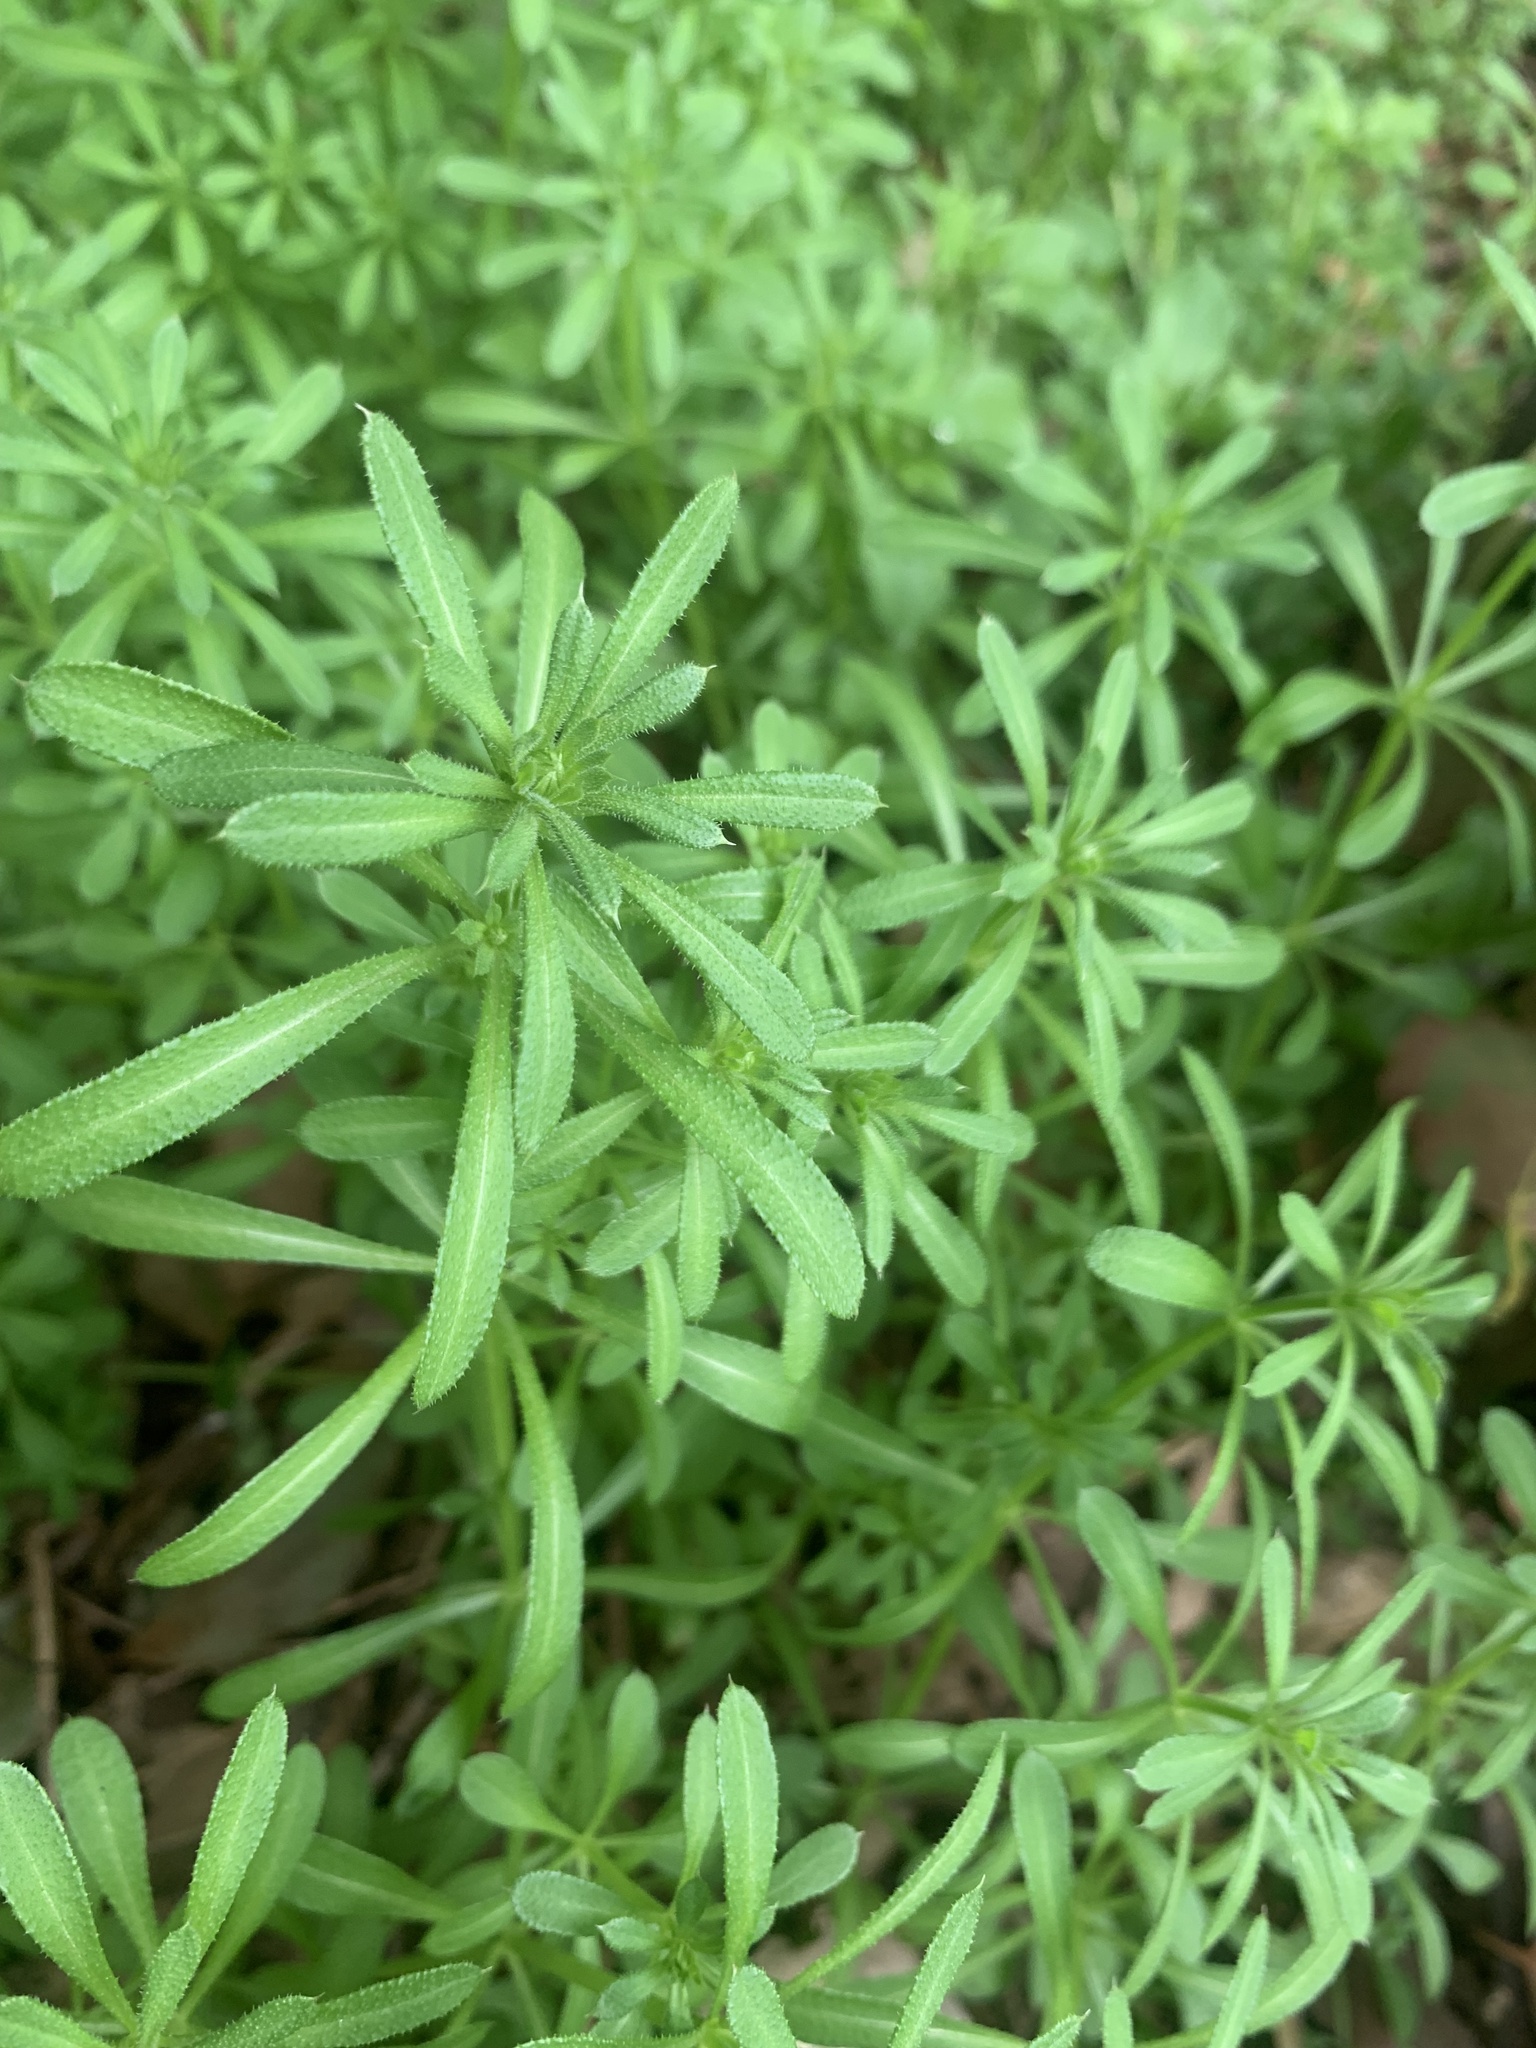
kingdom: Plantae
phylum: Tracheophyta
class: Magnoliopsida
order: Gentianales
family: Rubiaceae
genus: Galium
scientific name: Galium
